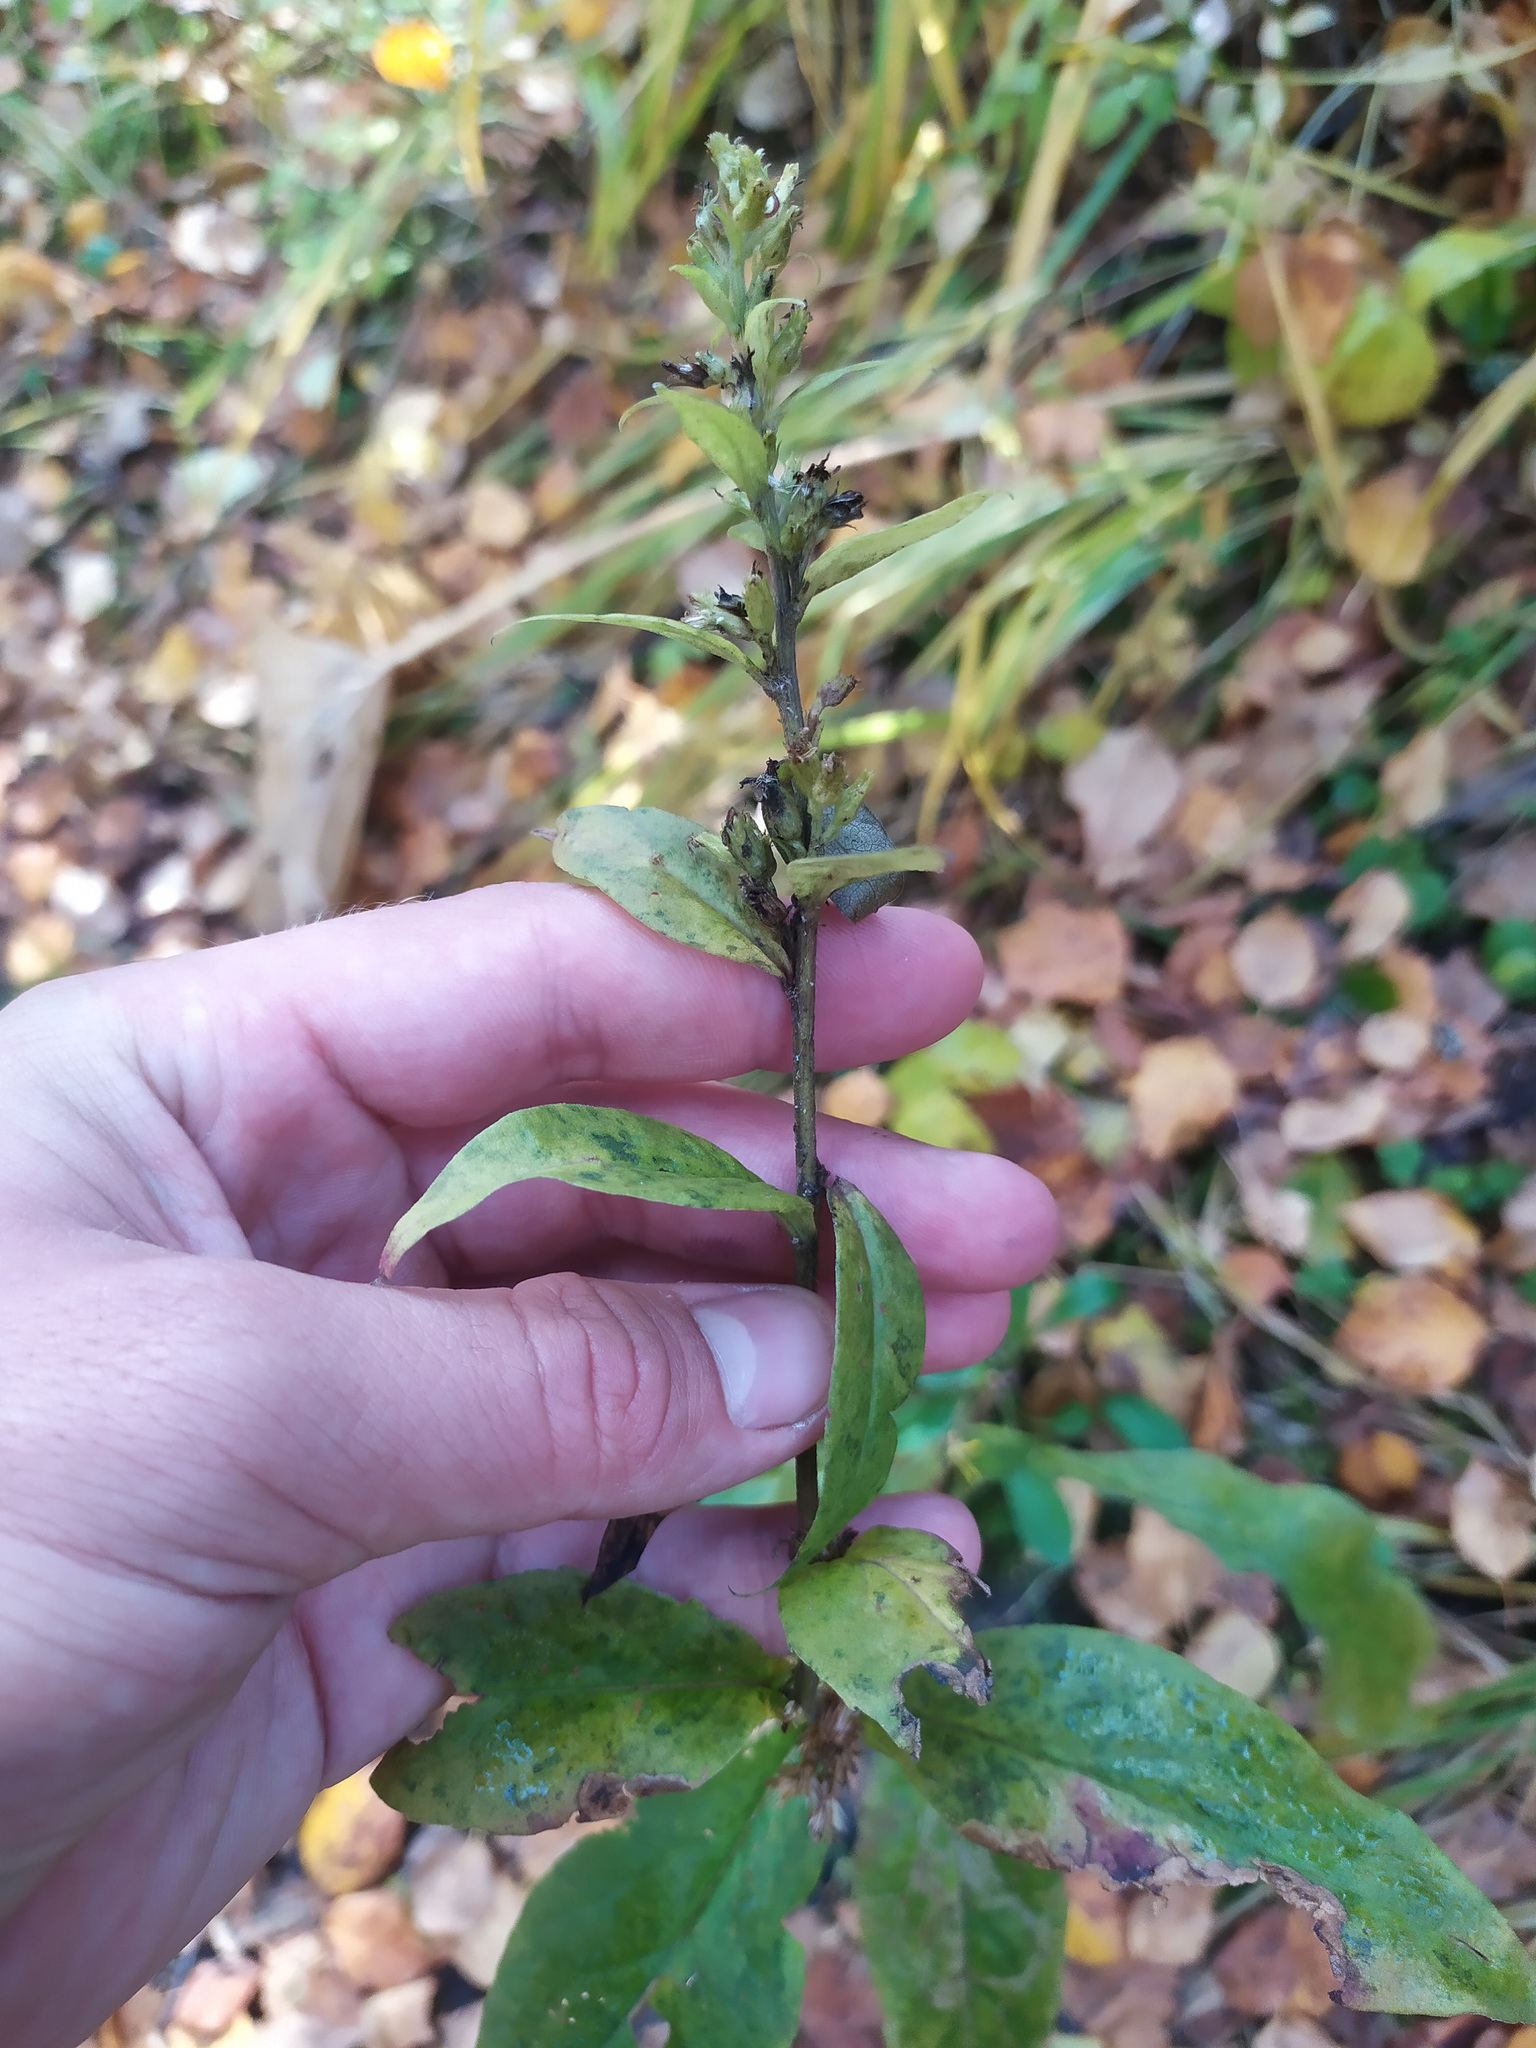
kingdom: Plantae
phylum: Tracheophyta
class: Magnoliopsida
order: Asterales
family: Asteraceae
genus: Solidago
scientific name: Solidago virgaurea
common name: Goldenrod
